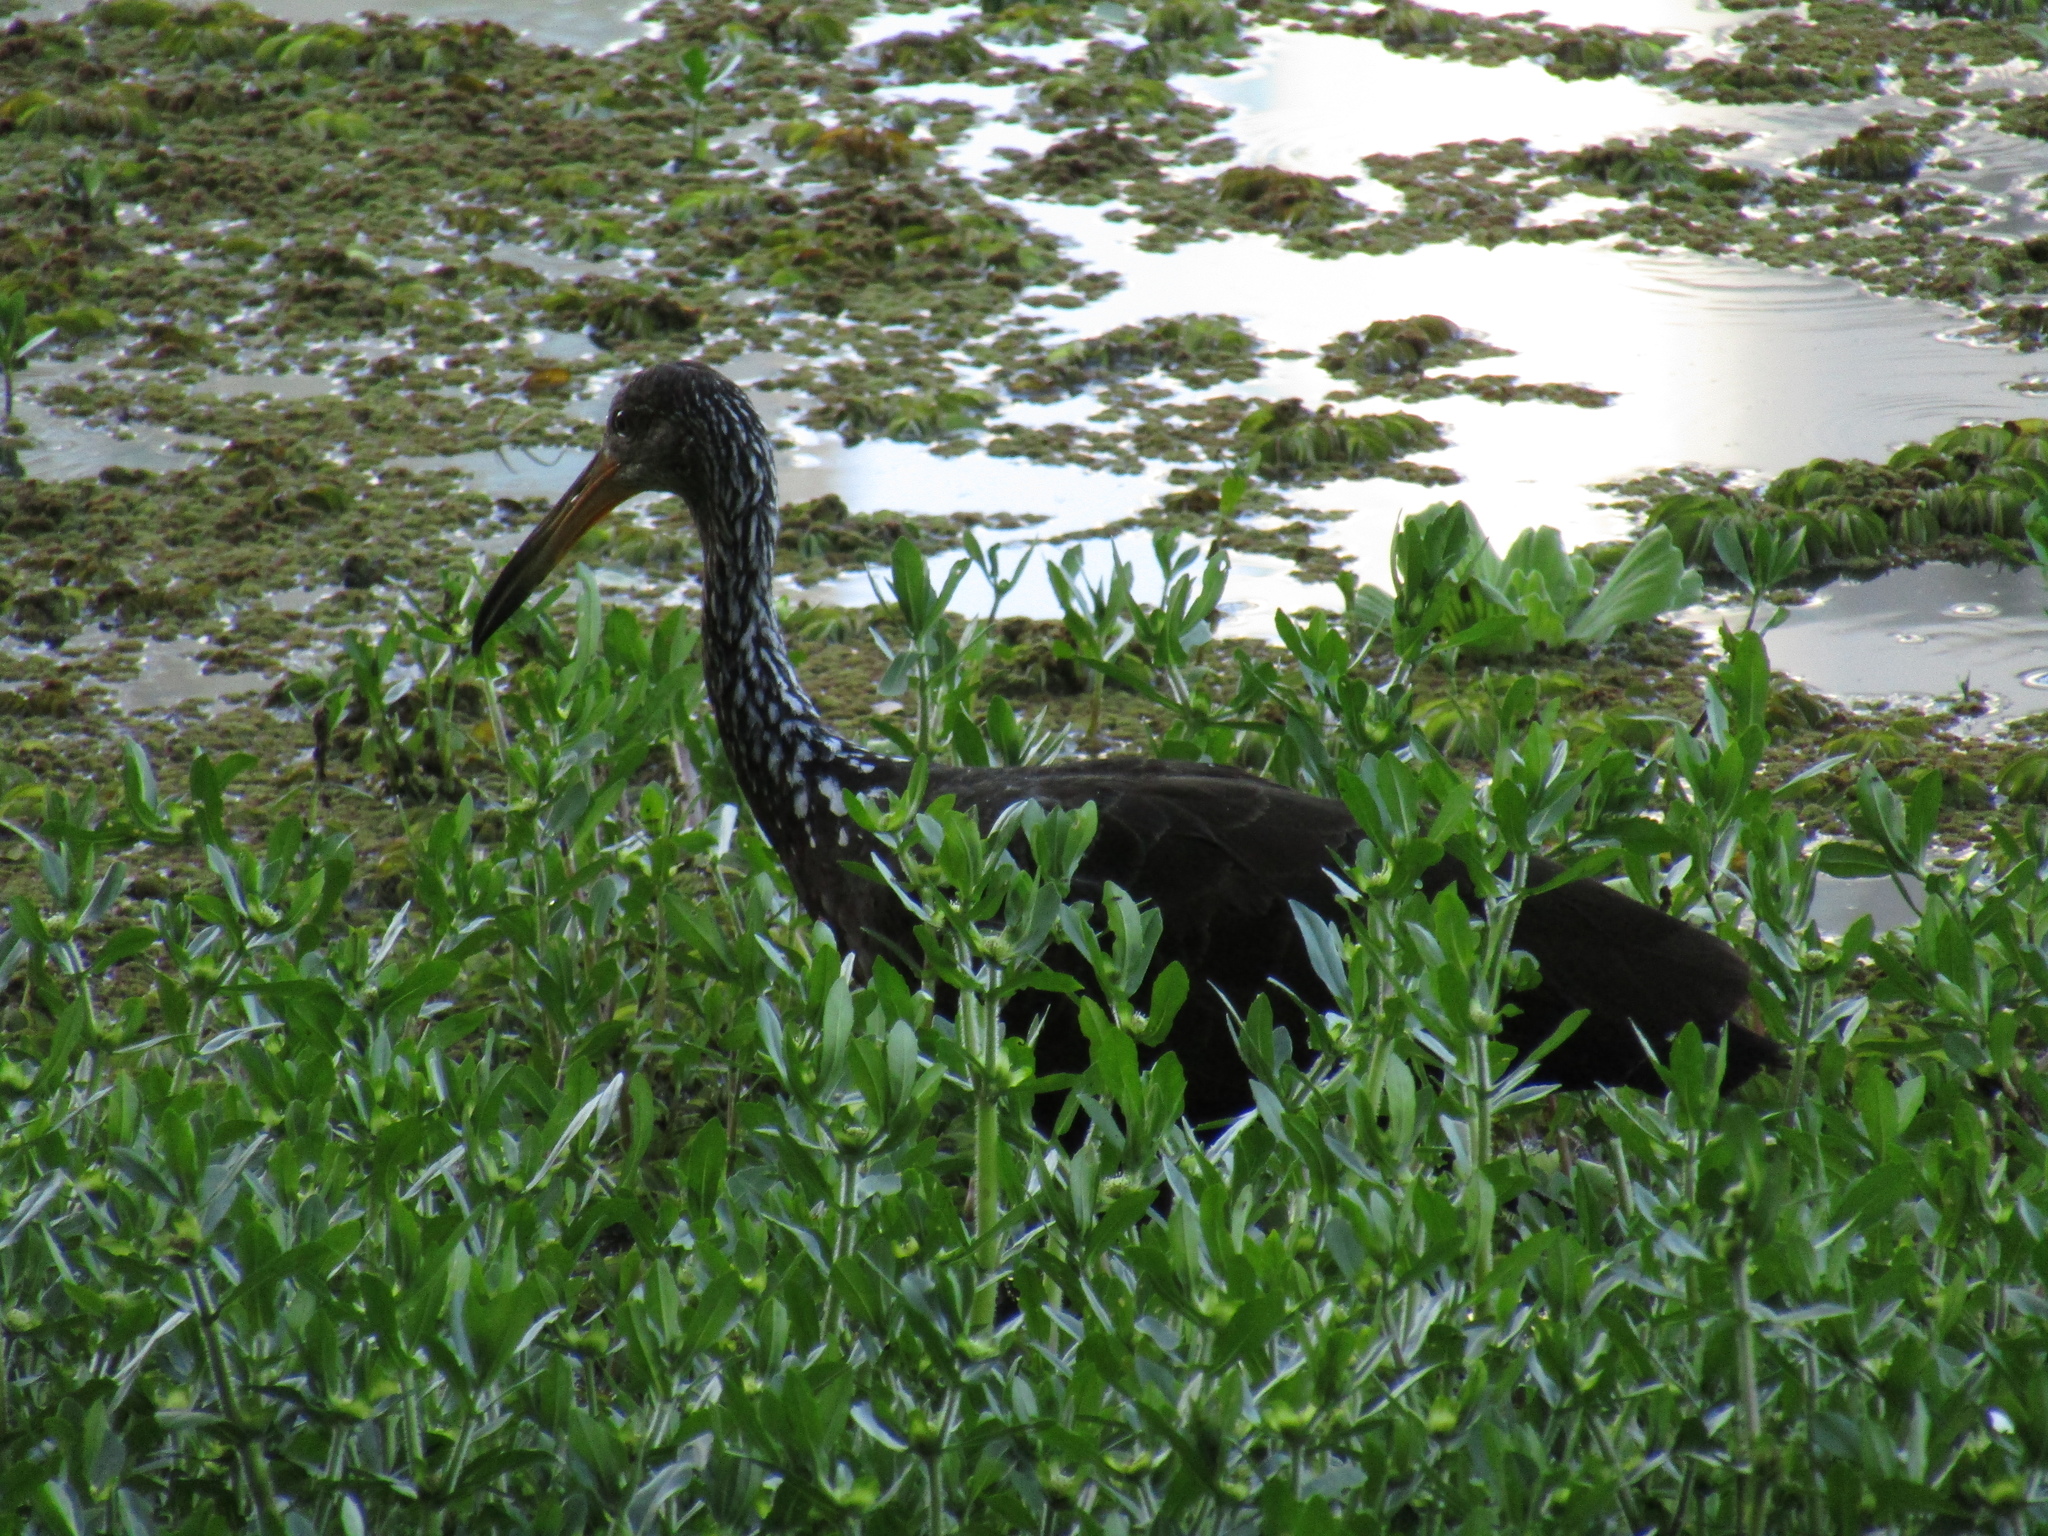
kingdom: Animalia
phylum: Chordata
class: Aves
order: Gruiformes
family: Aramidae
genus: Aramus
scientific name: Aramus guarauna
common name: Limpkin
